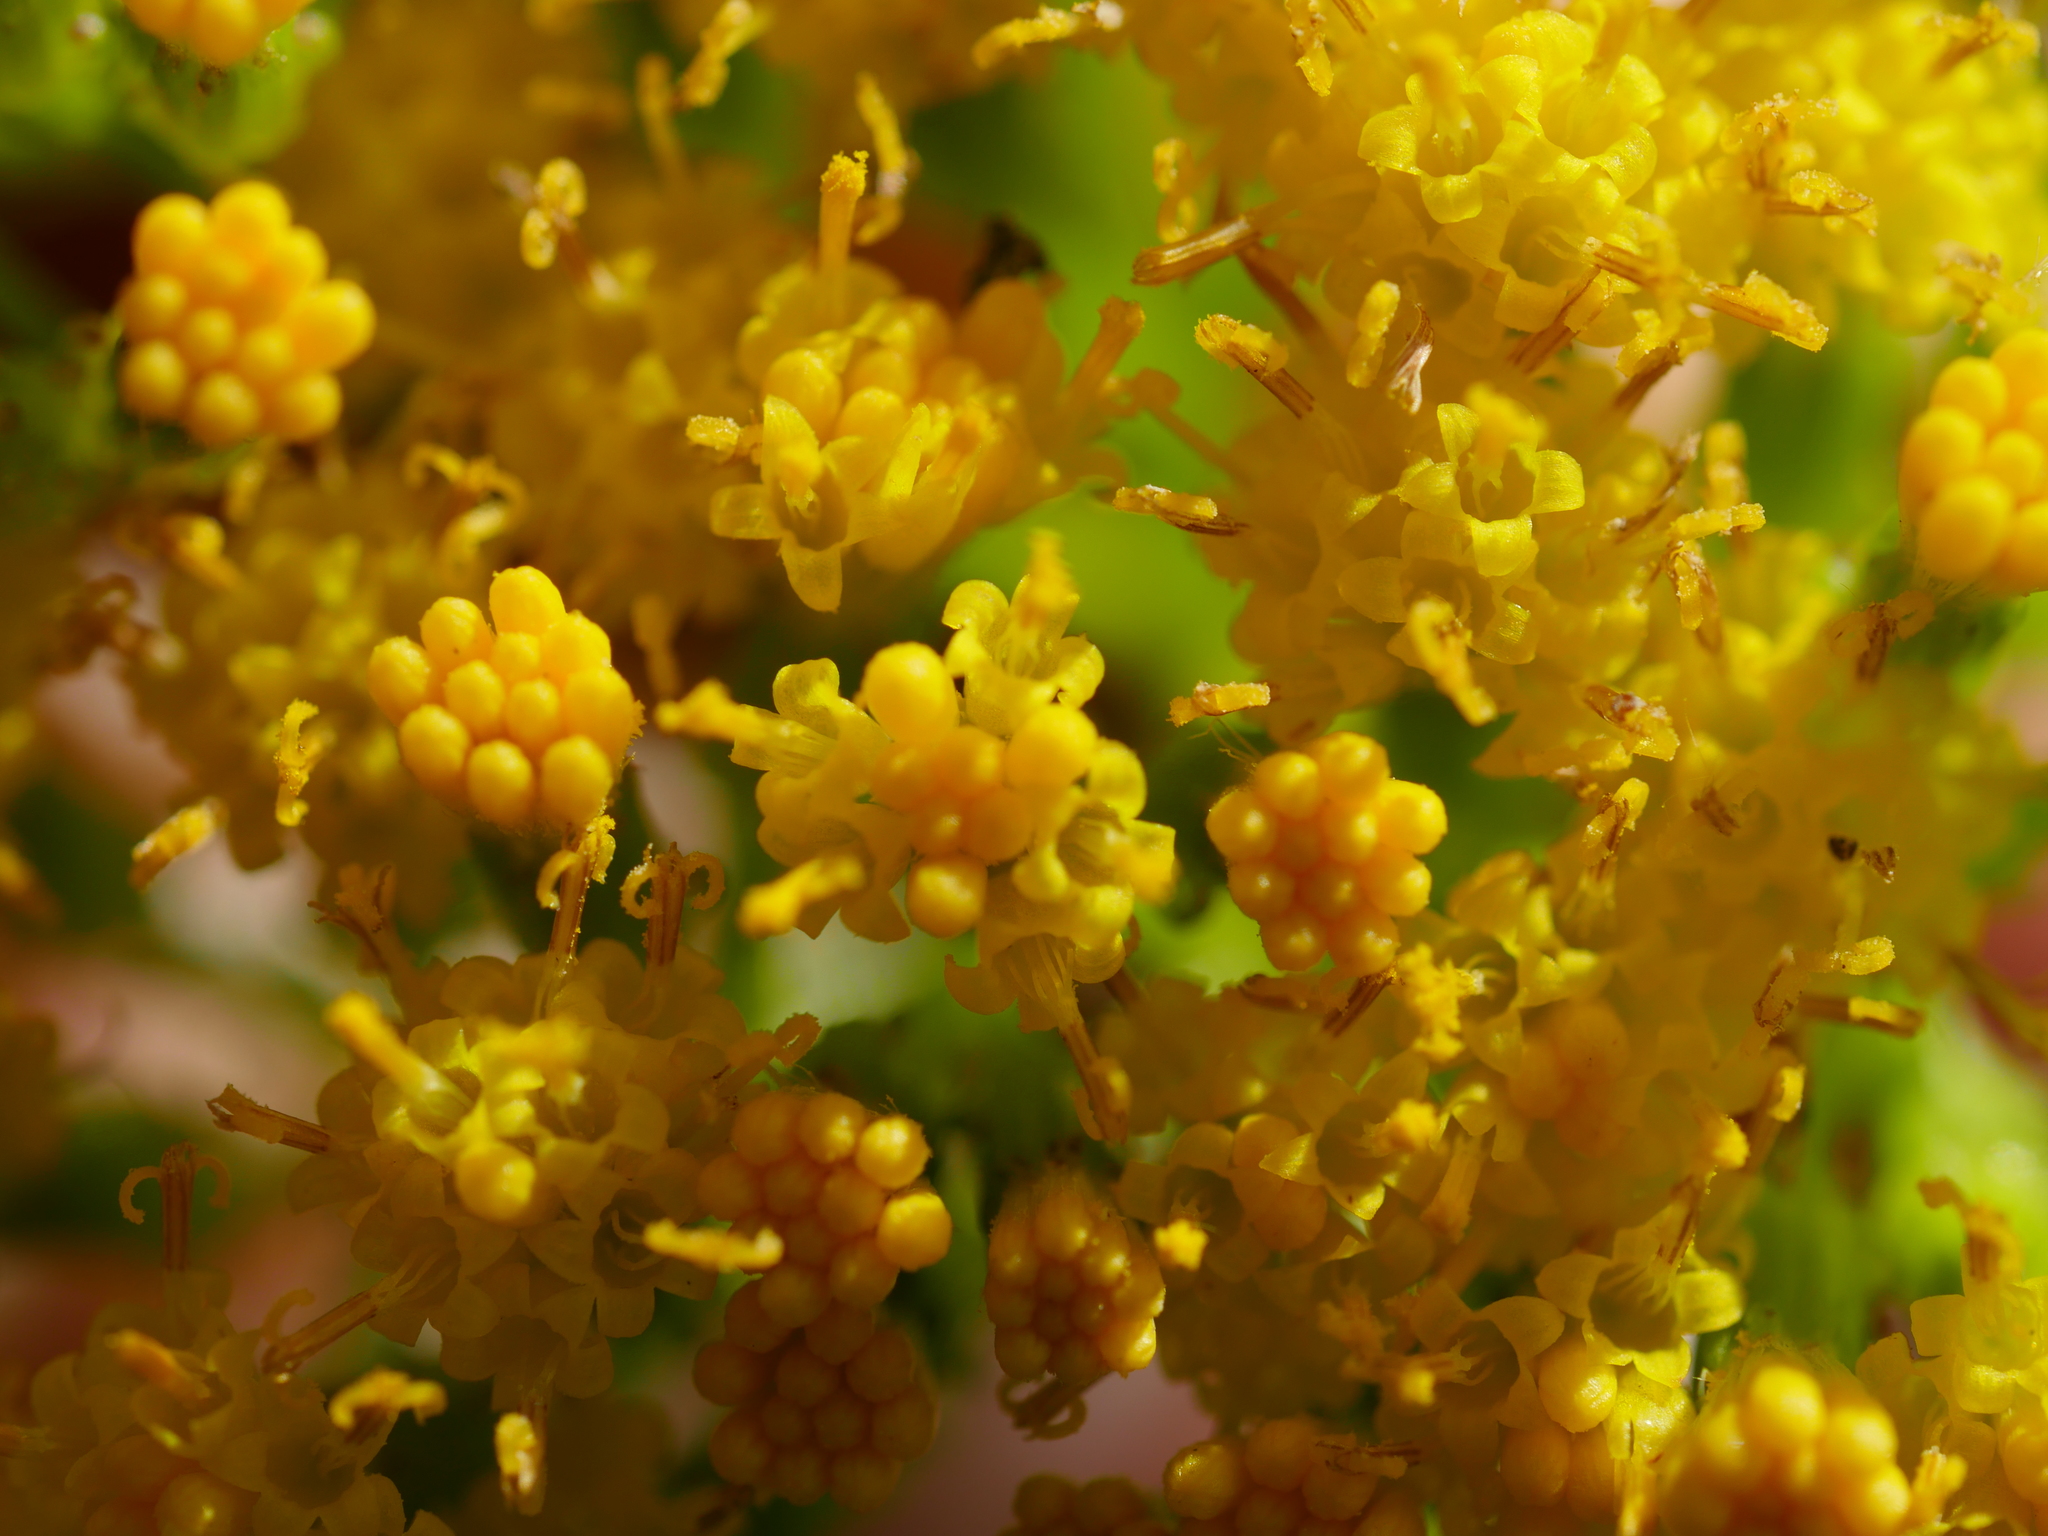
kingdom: Plantae
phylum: Tracheophyta
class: Magnoliopsida
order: Asterales
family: Asteraceae
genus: Delairea
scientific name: Delairea odorata
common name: Cape-ivy
